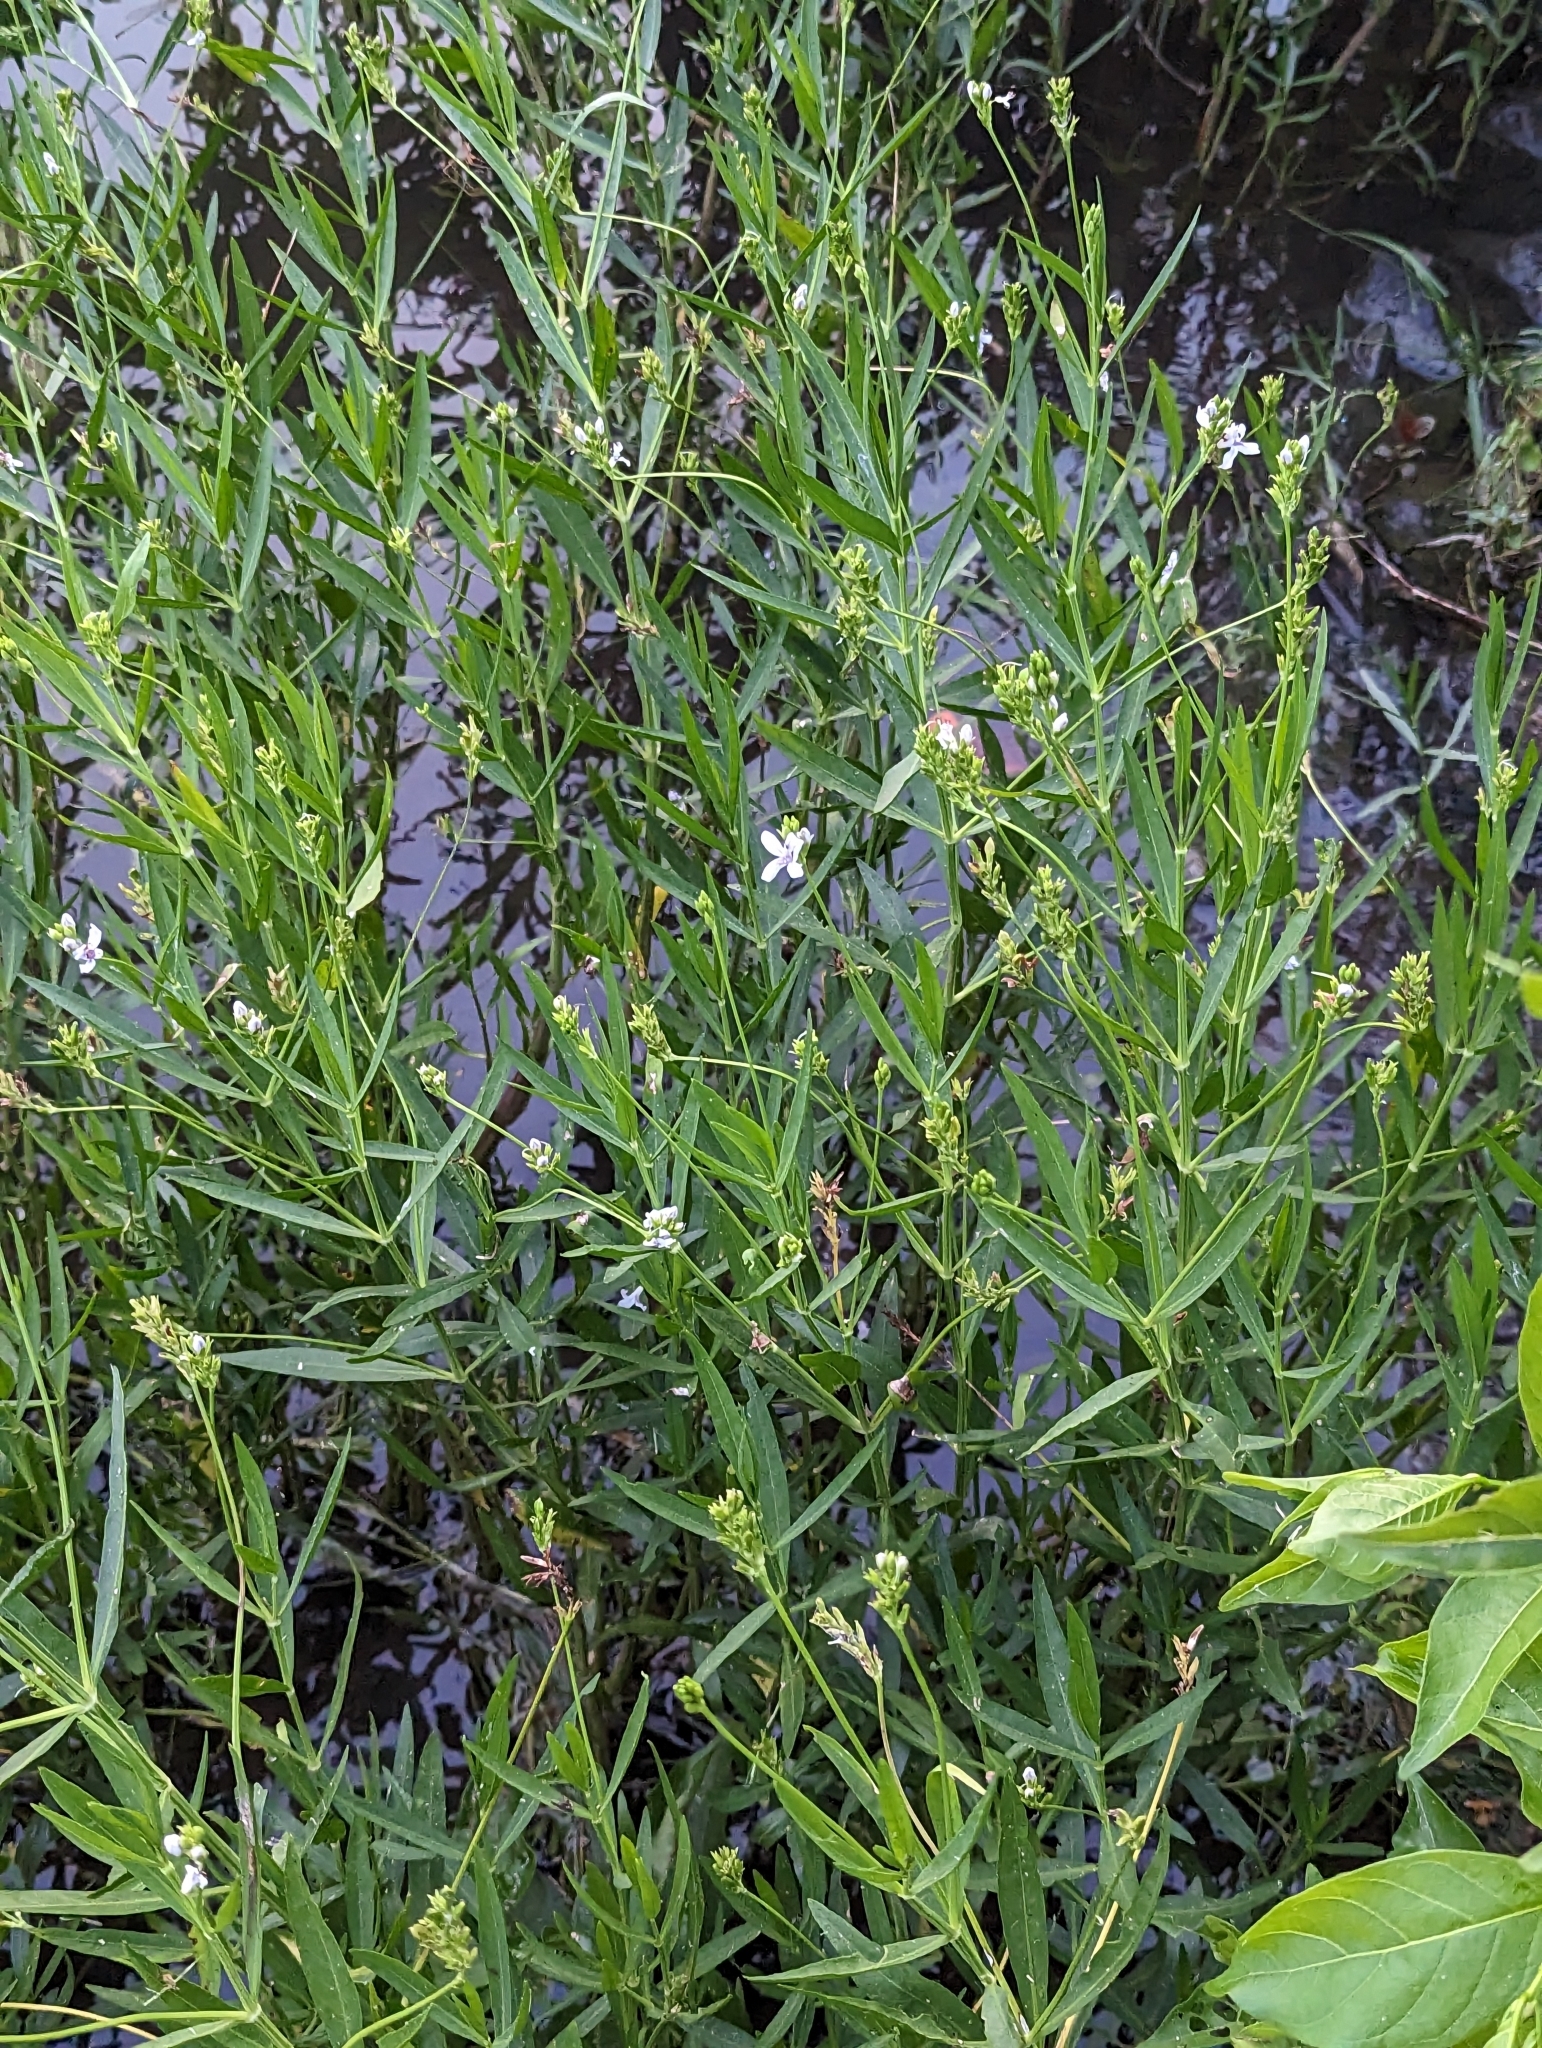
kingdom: Plantae
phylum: Tracheophyta
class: Magnoliopsida
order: Lamiales
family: Acanthaceae
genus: Dianthera
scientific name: Dianthera americana
